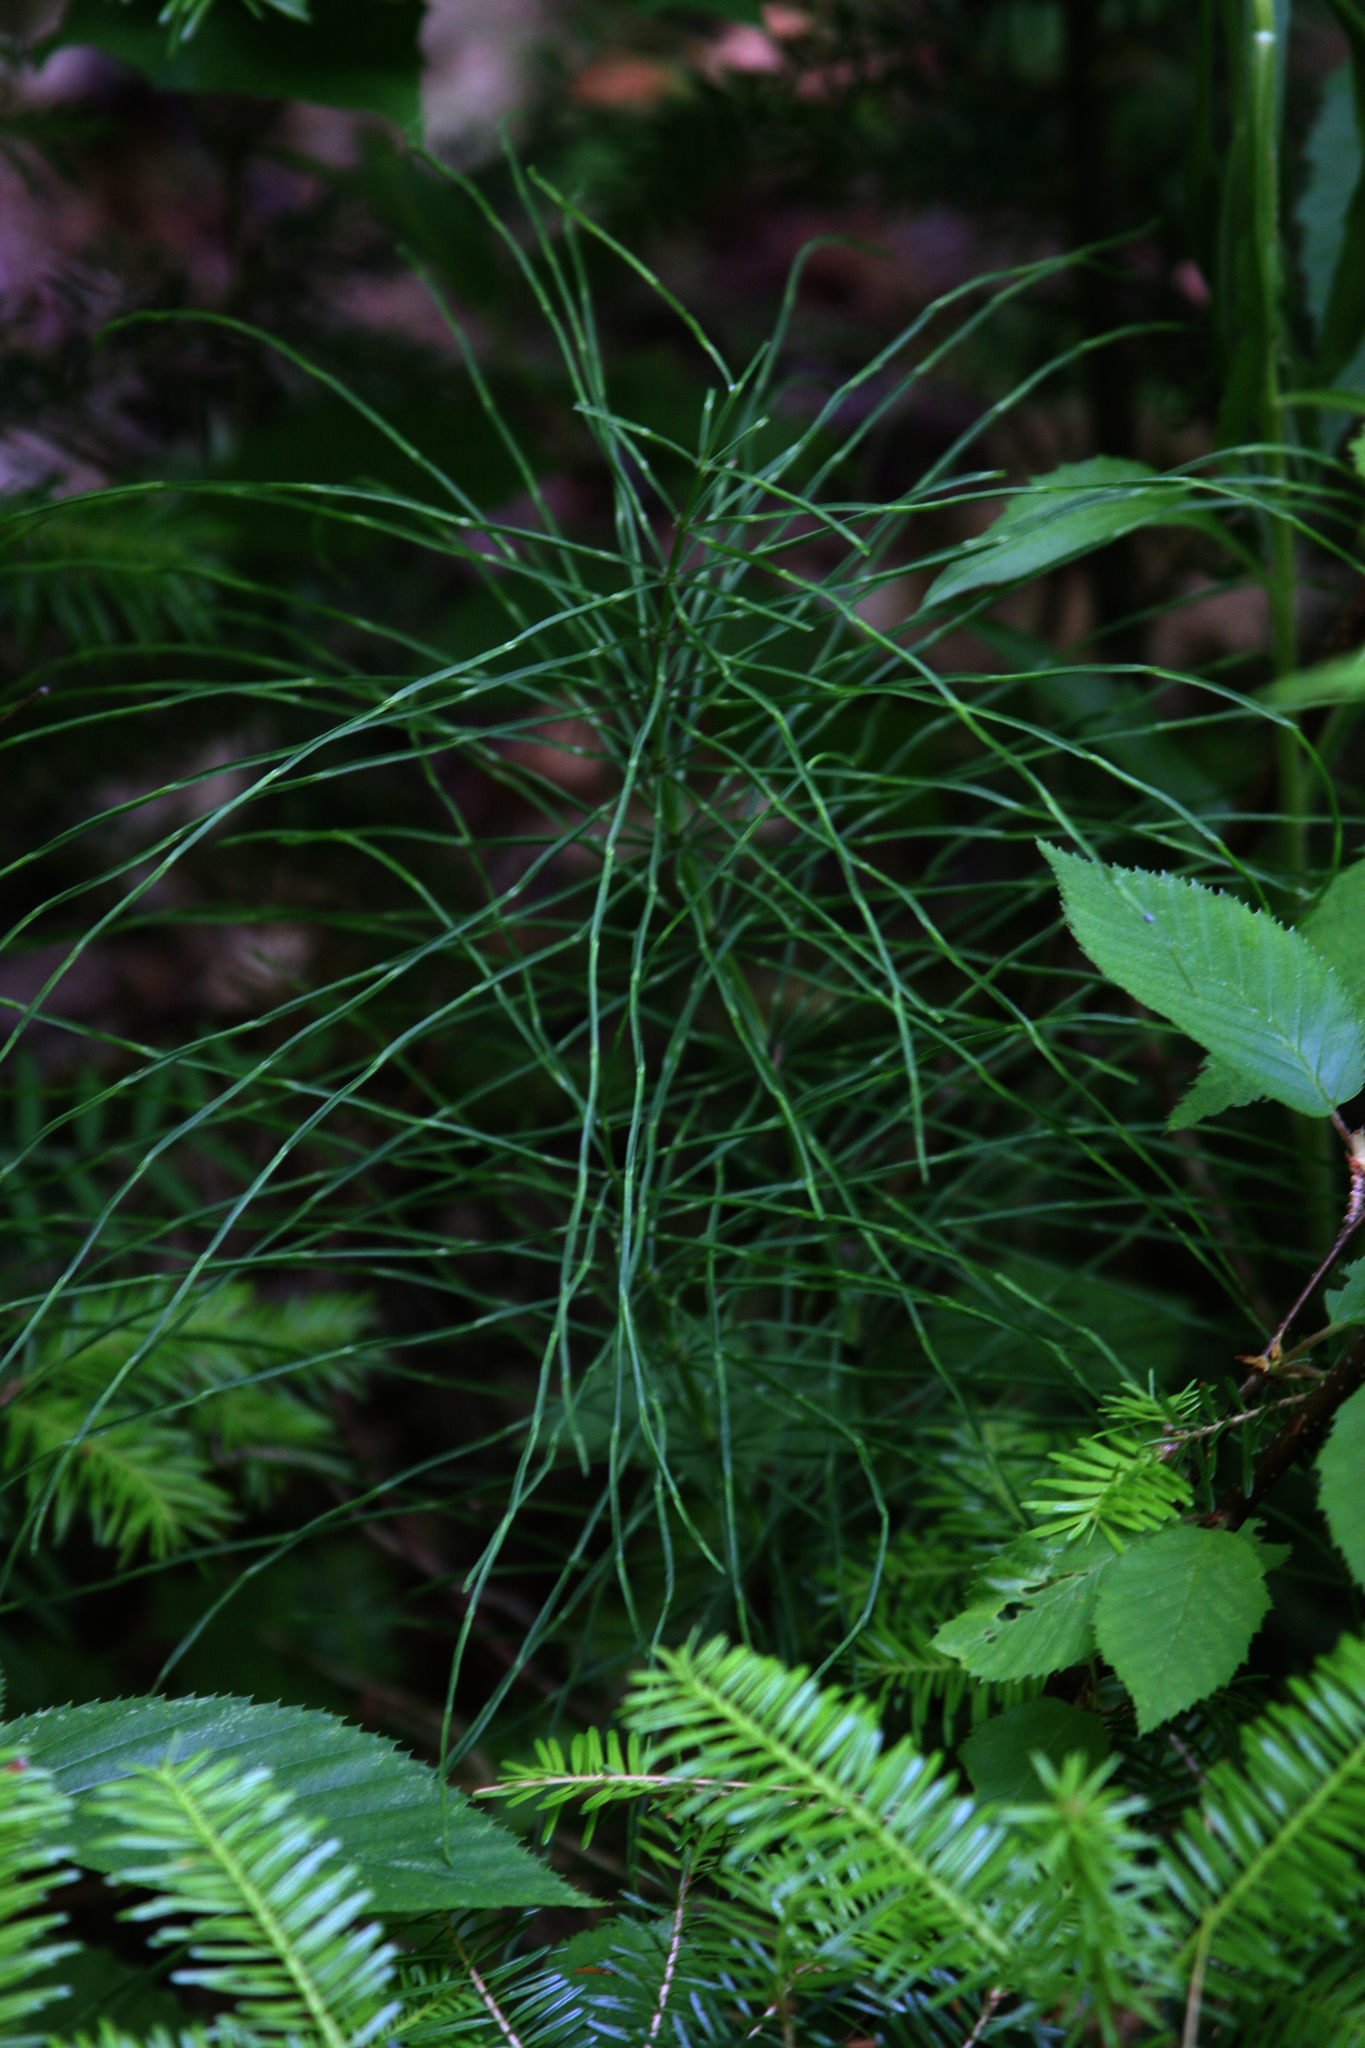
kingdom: Plantae
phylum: Tracheophyta
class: Polypodiopsida
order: Equisetales
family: Equisetaceae
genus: Equisetum
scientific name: Equisetum arvense
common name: Field horsetail
